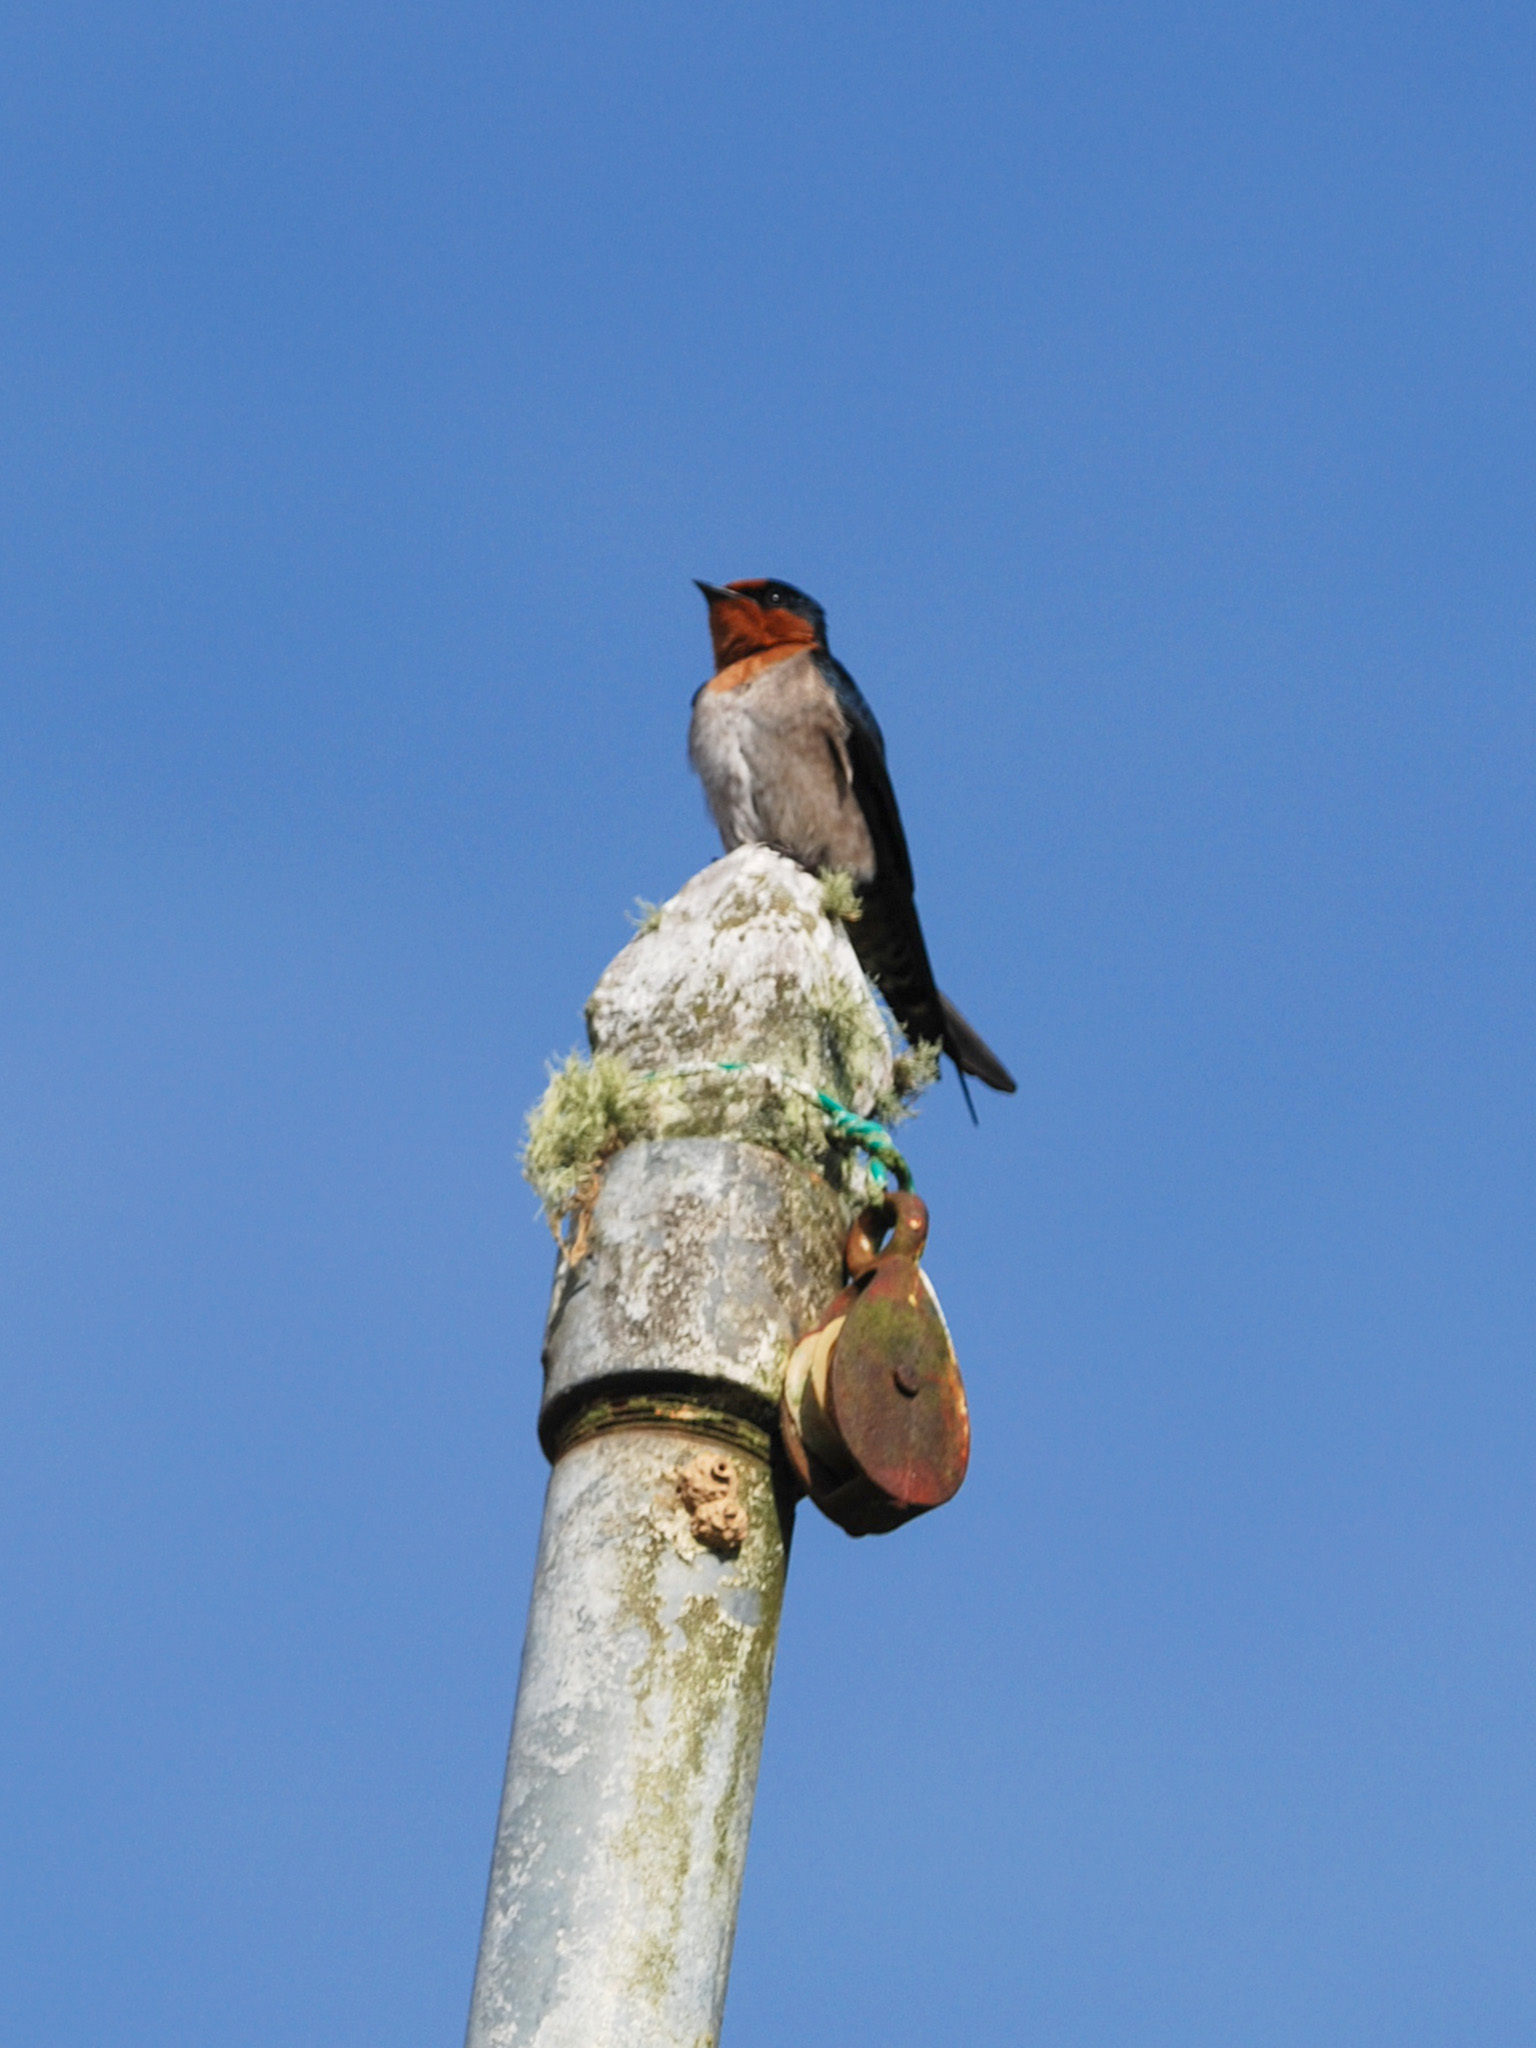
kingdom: Animalia
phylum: Chordata
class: Aves
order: Passeriformes
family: Hirundinidae
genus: Hirundo
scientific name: Hirundo tahitica
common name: Pacific swallow
